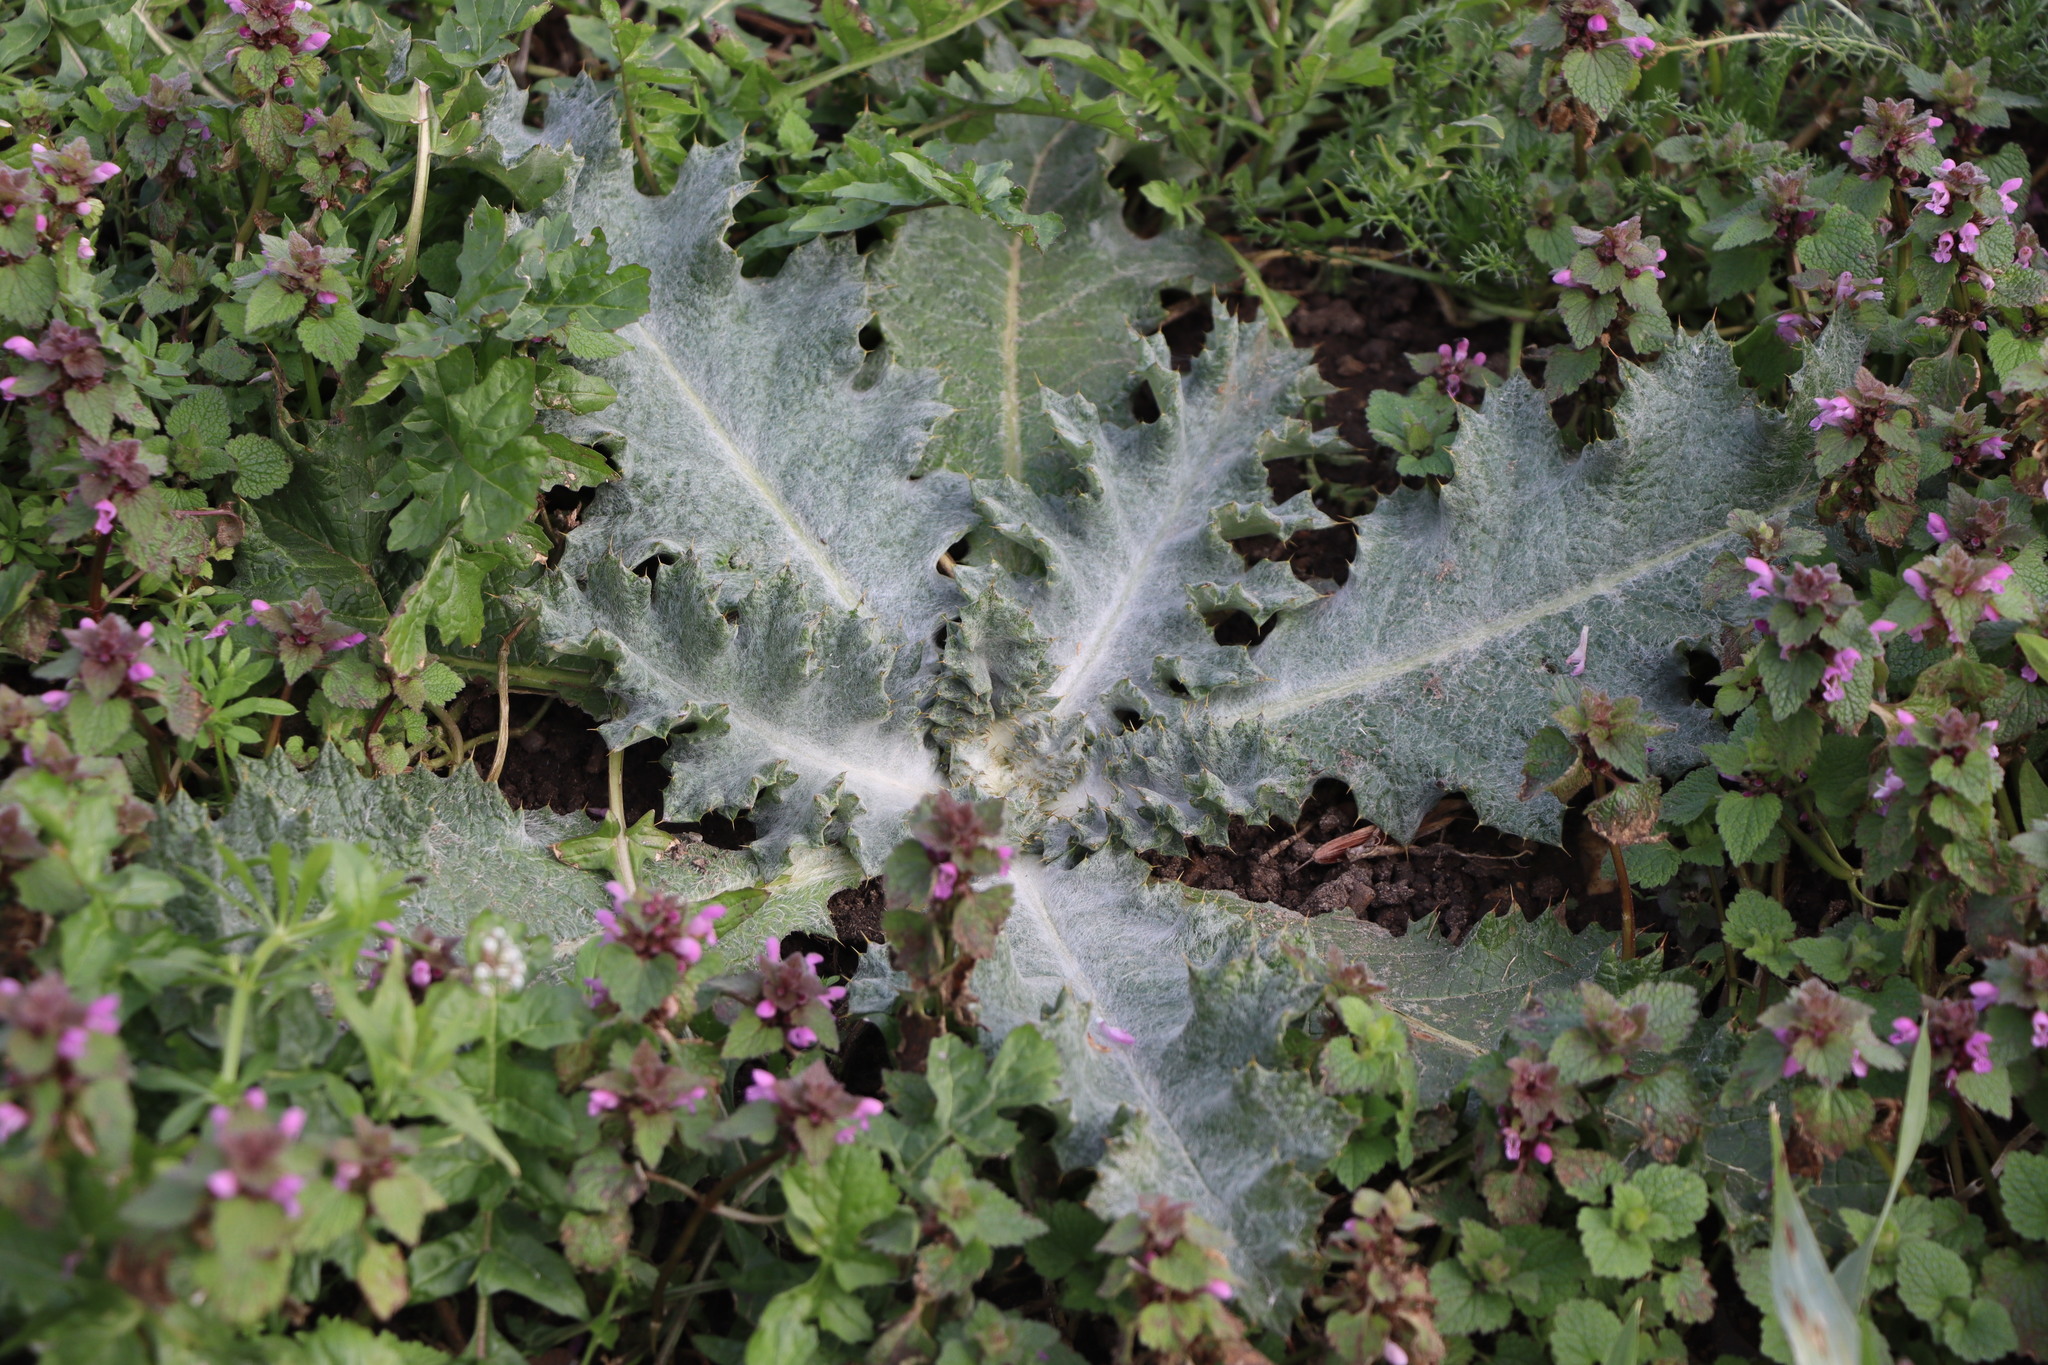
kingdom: Plantae
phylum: Tracheophyta
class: Magnoliopsida
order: Asterales
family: Asteraceae
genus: Onopordum
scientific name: Onopordum acanthium
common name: Scotch thistle
